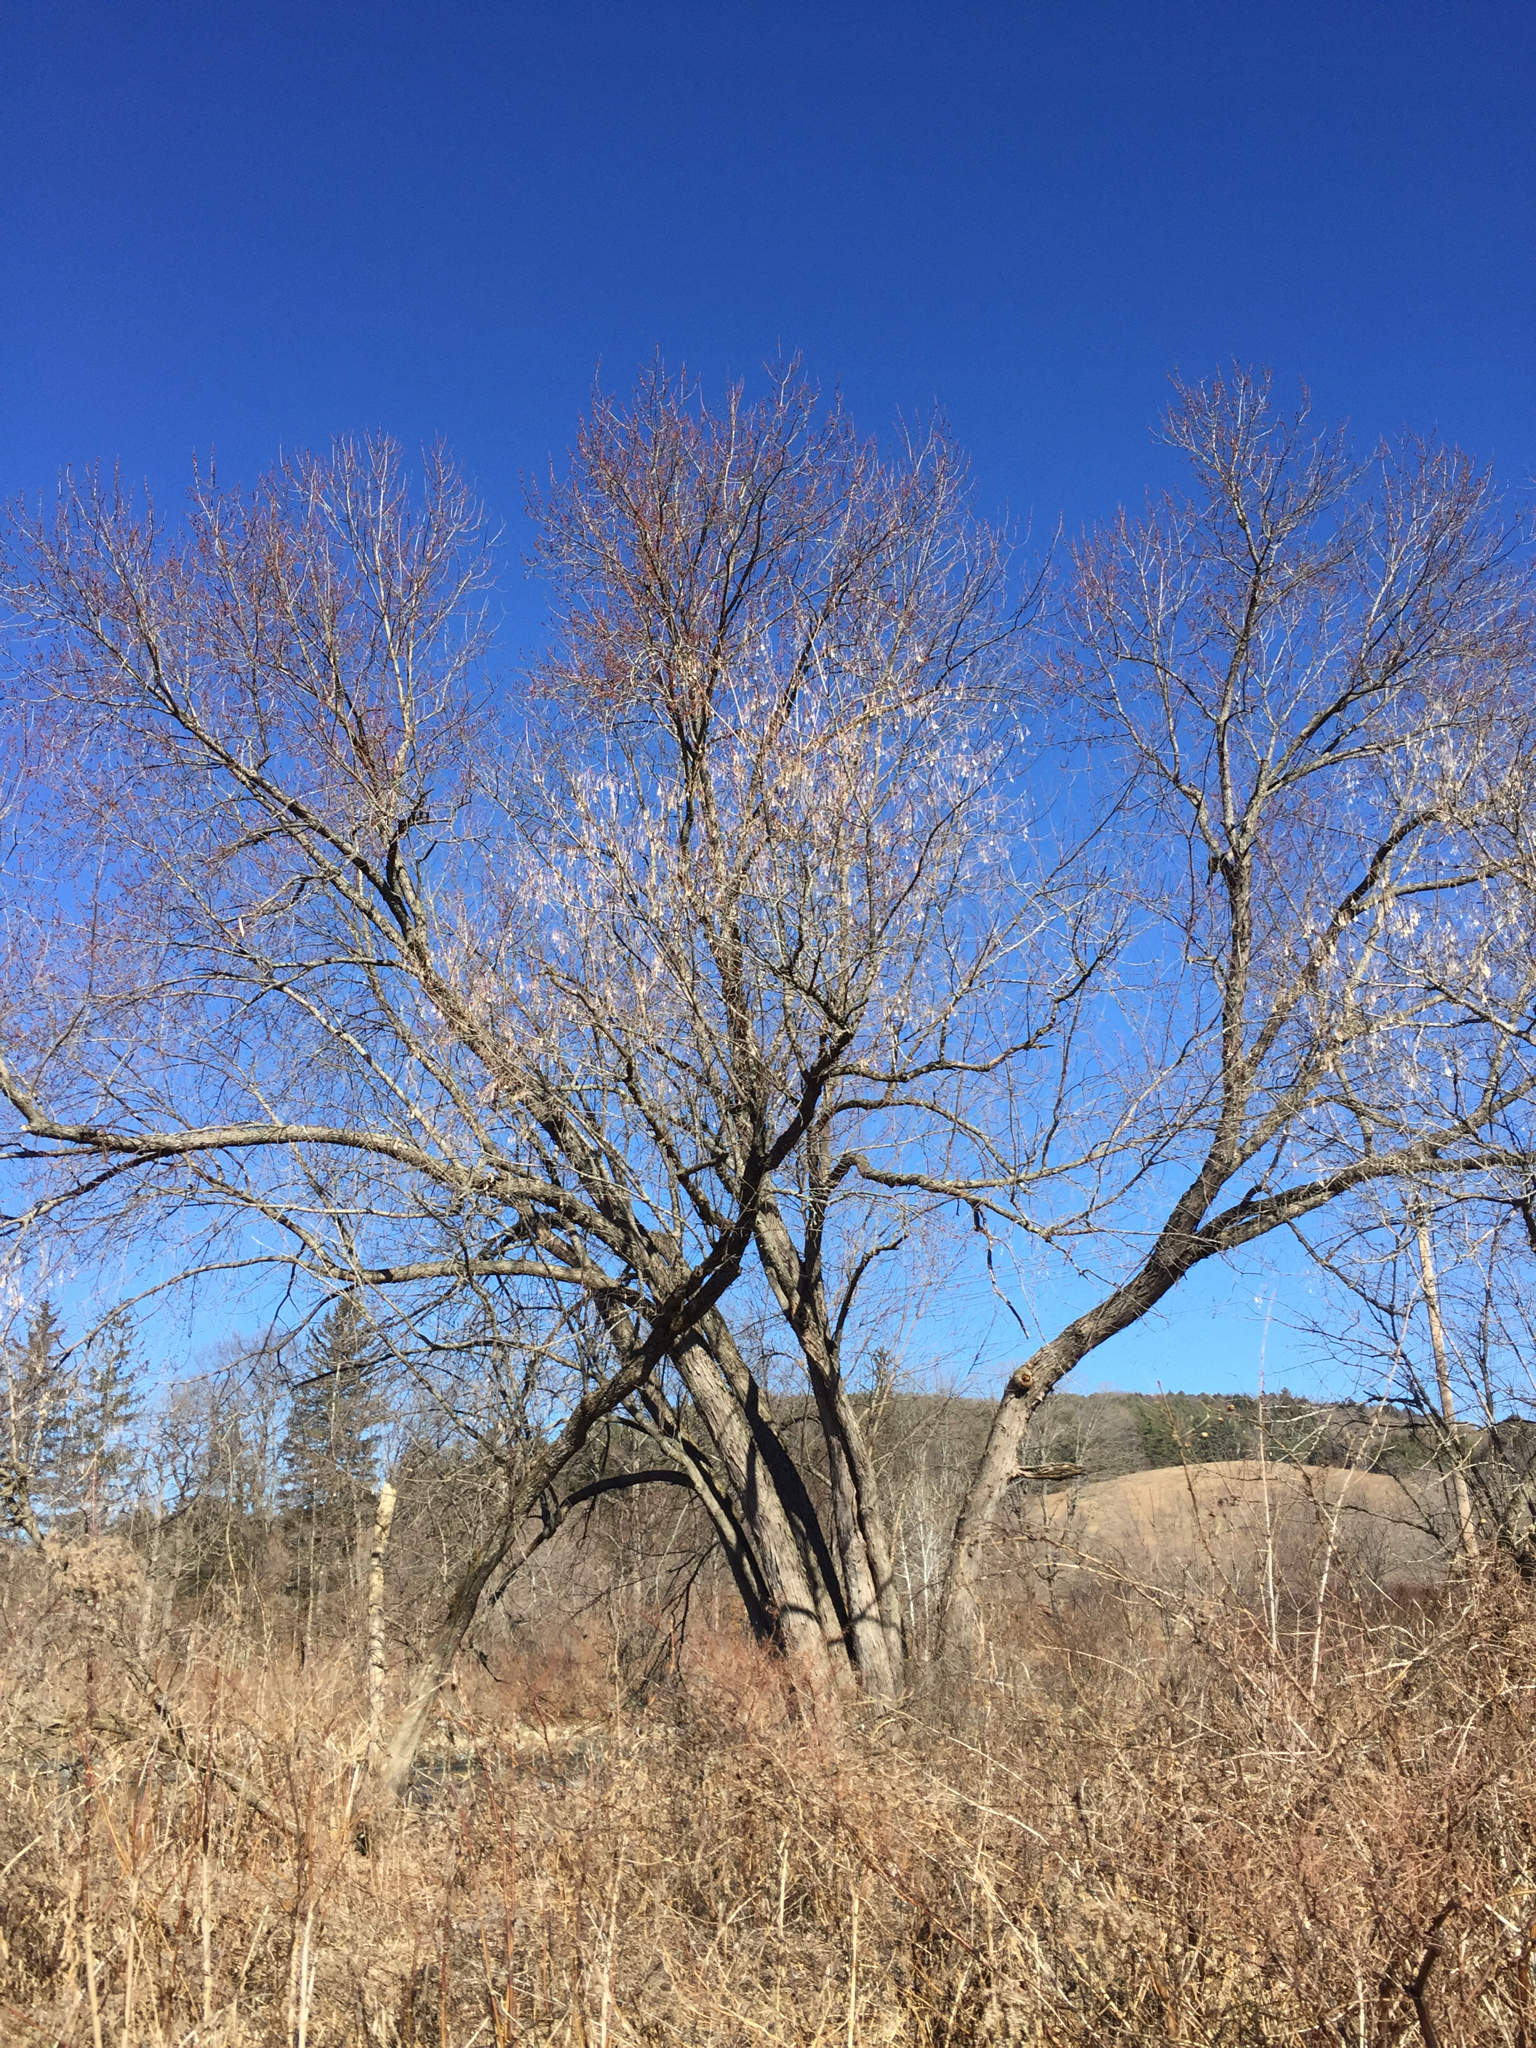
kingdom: Plantae
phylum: Tracheophyta
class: Magnoliopsida
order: Sapindales
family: Sapindaceae
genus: Acer
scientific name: Acer saccharinum
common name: Silver maple
